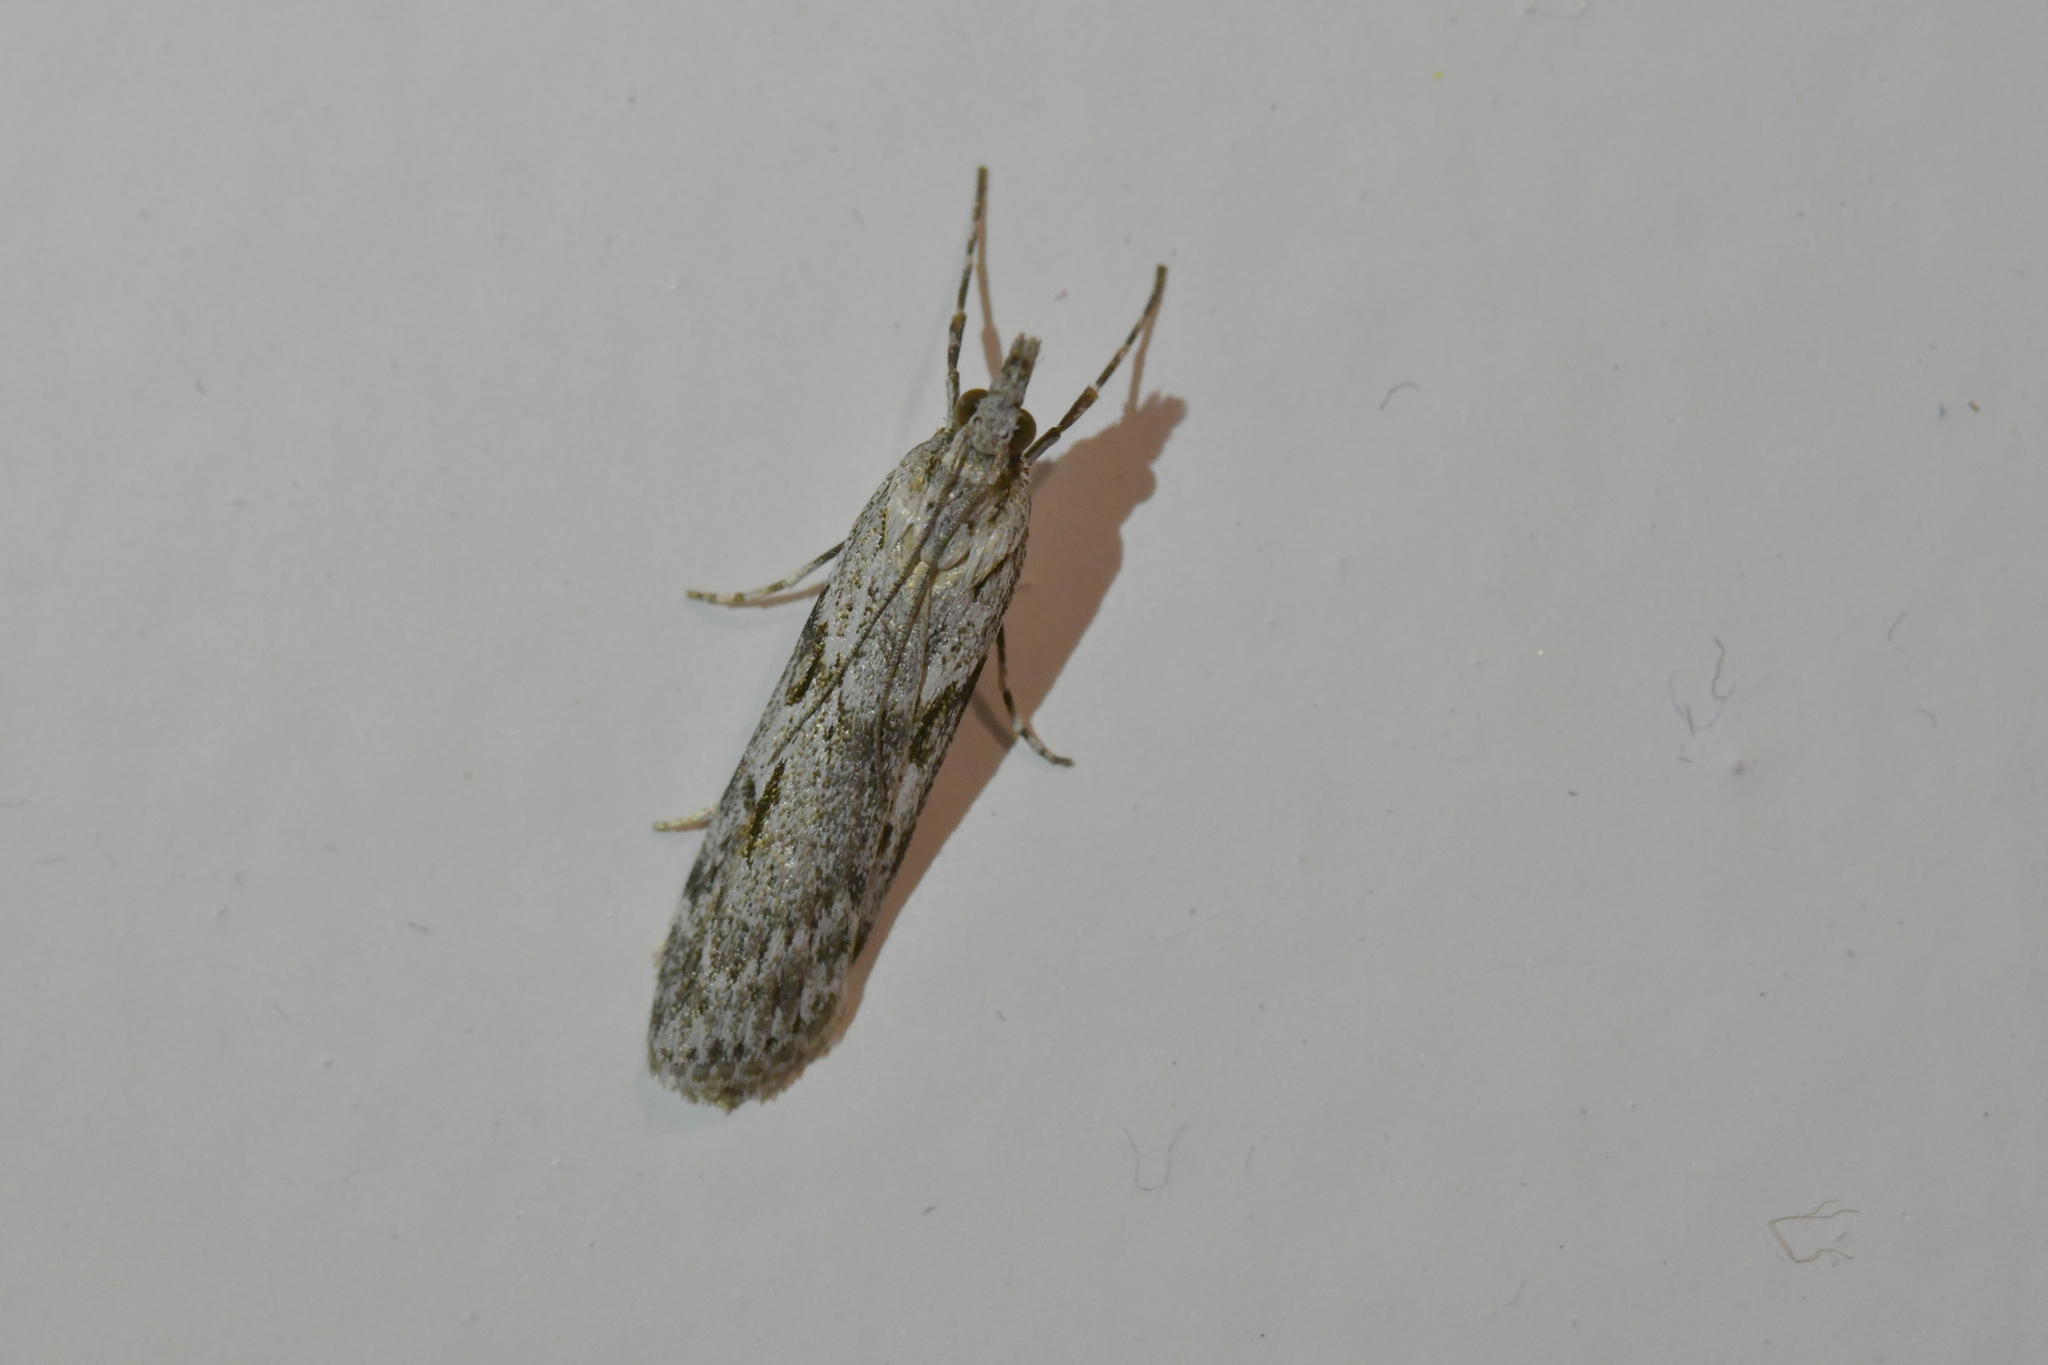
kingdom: Animalia
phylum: Arthropoda
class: Insecta
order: Lepidoptera
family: Crambidae
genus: Scoparia
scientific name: Scoparia halopis
